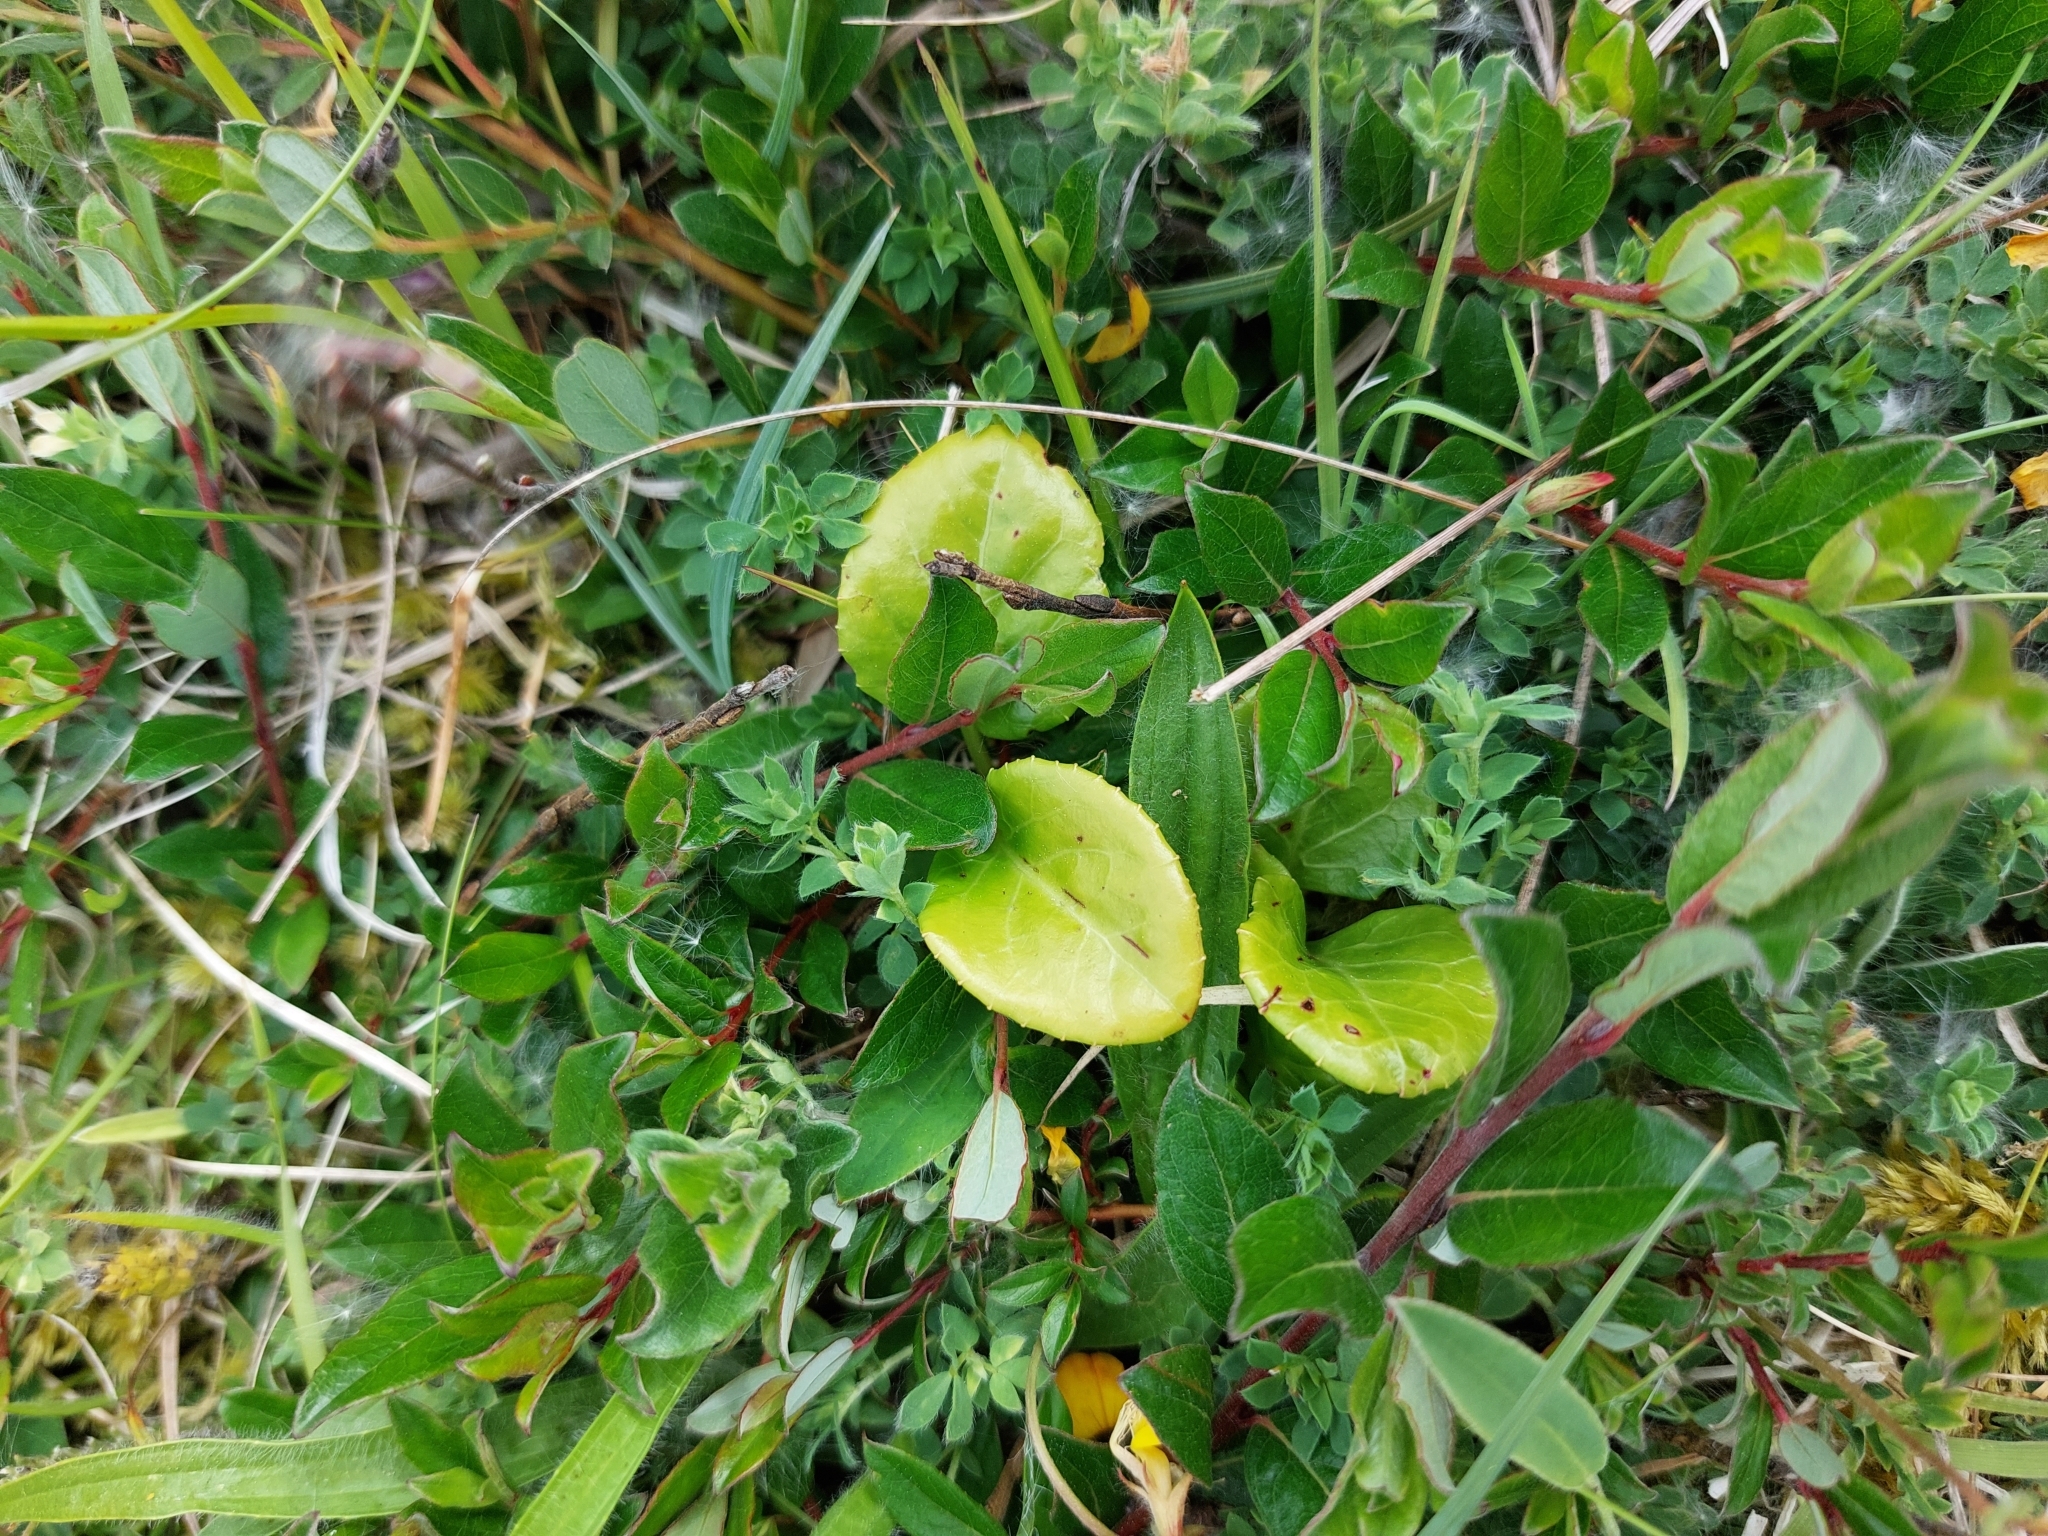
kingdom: Plantae
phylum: Tracheophyta
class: Magnoliopsida
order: Ericales
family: Ericaceae
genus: Pyrola
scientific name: Pyrola rotundifolia
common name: Round-leaved wintergreen
